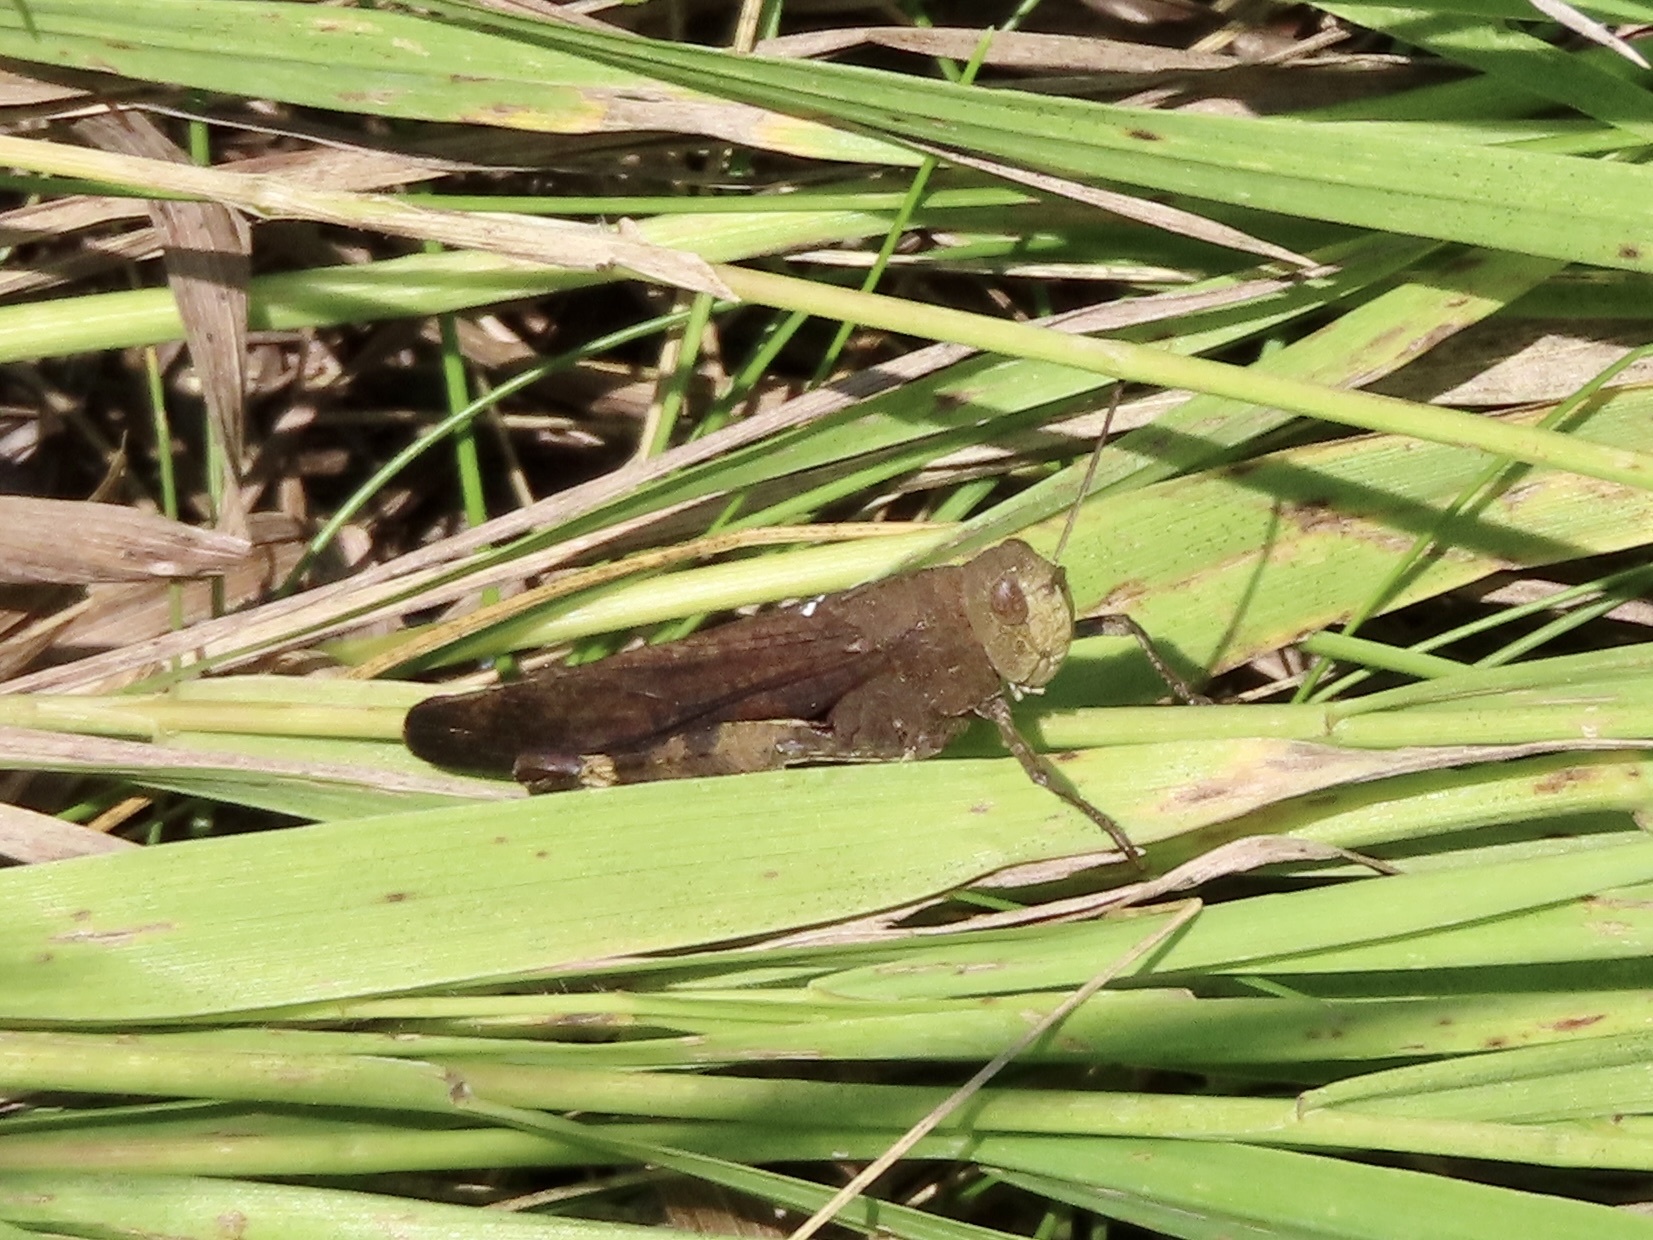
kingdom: Animalia
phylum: Arthropoda
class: Insecta
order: Orthoptera
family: Acrididae
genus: Arphia
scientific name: Arphia sulphurea
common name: Spring yellow-winged locust
